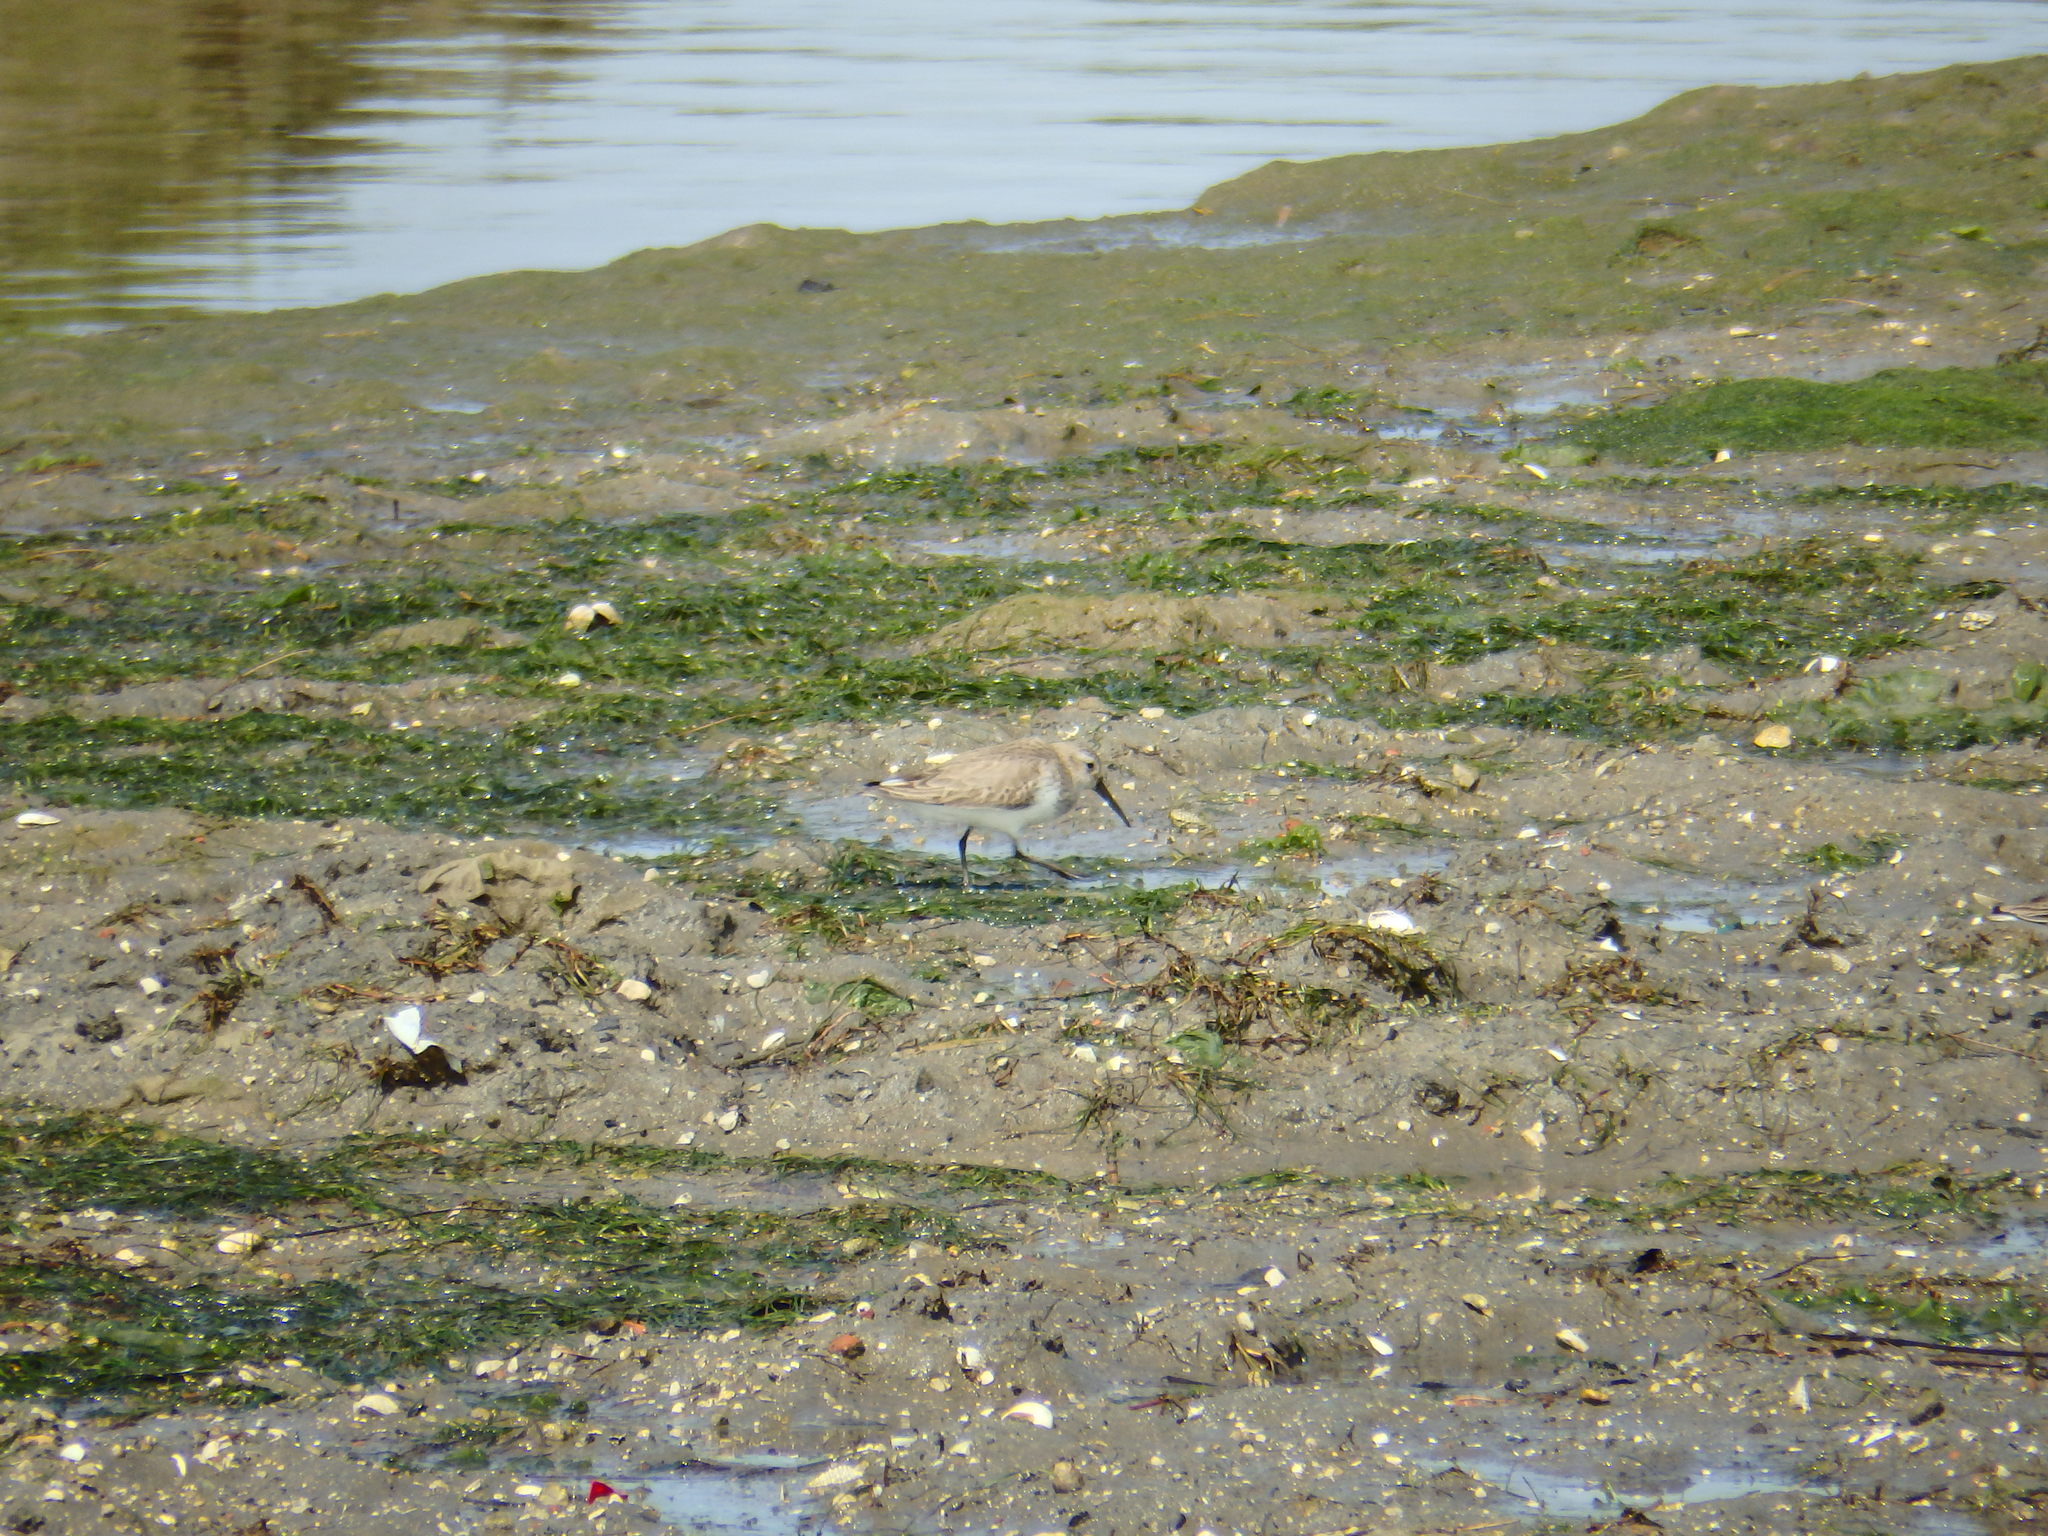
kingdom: Animalia
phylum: Chordata
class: Aves
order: Charadriiformes
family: Scolopacidae
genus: Calidris
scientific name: Calidris alpina
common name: Dunlin
